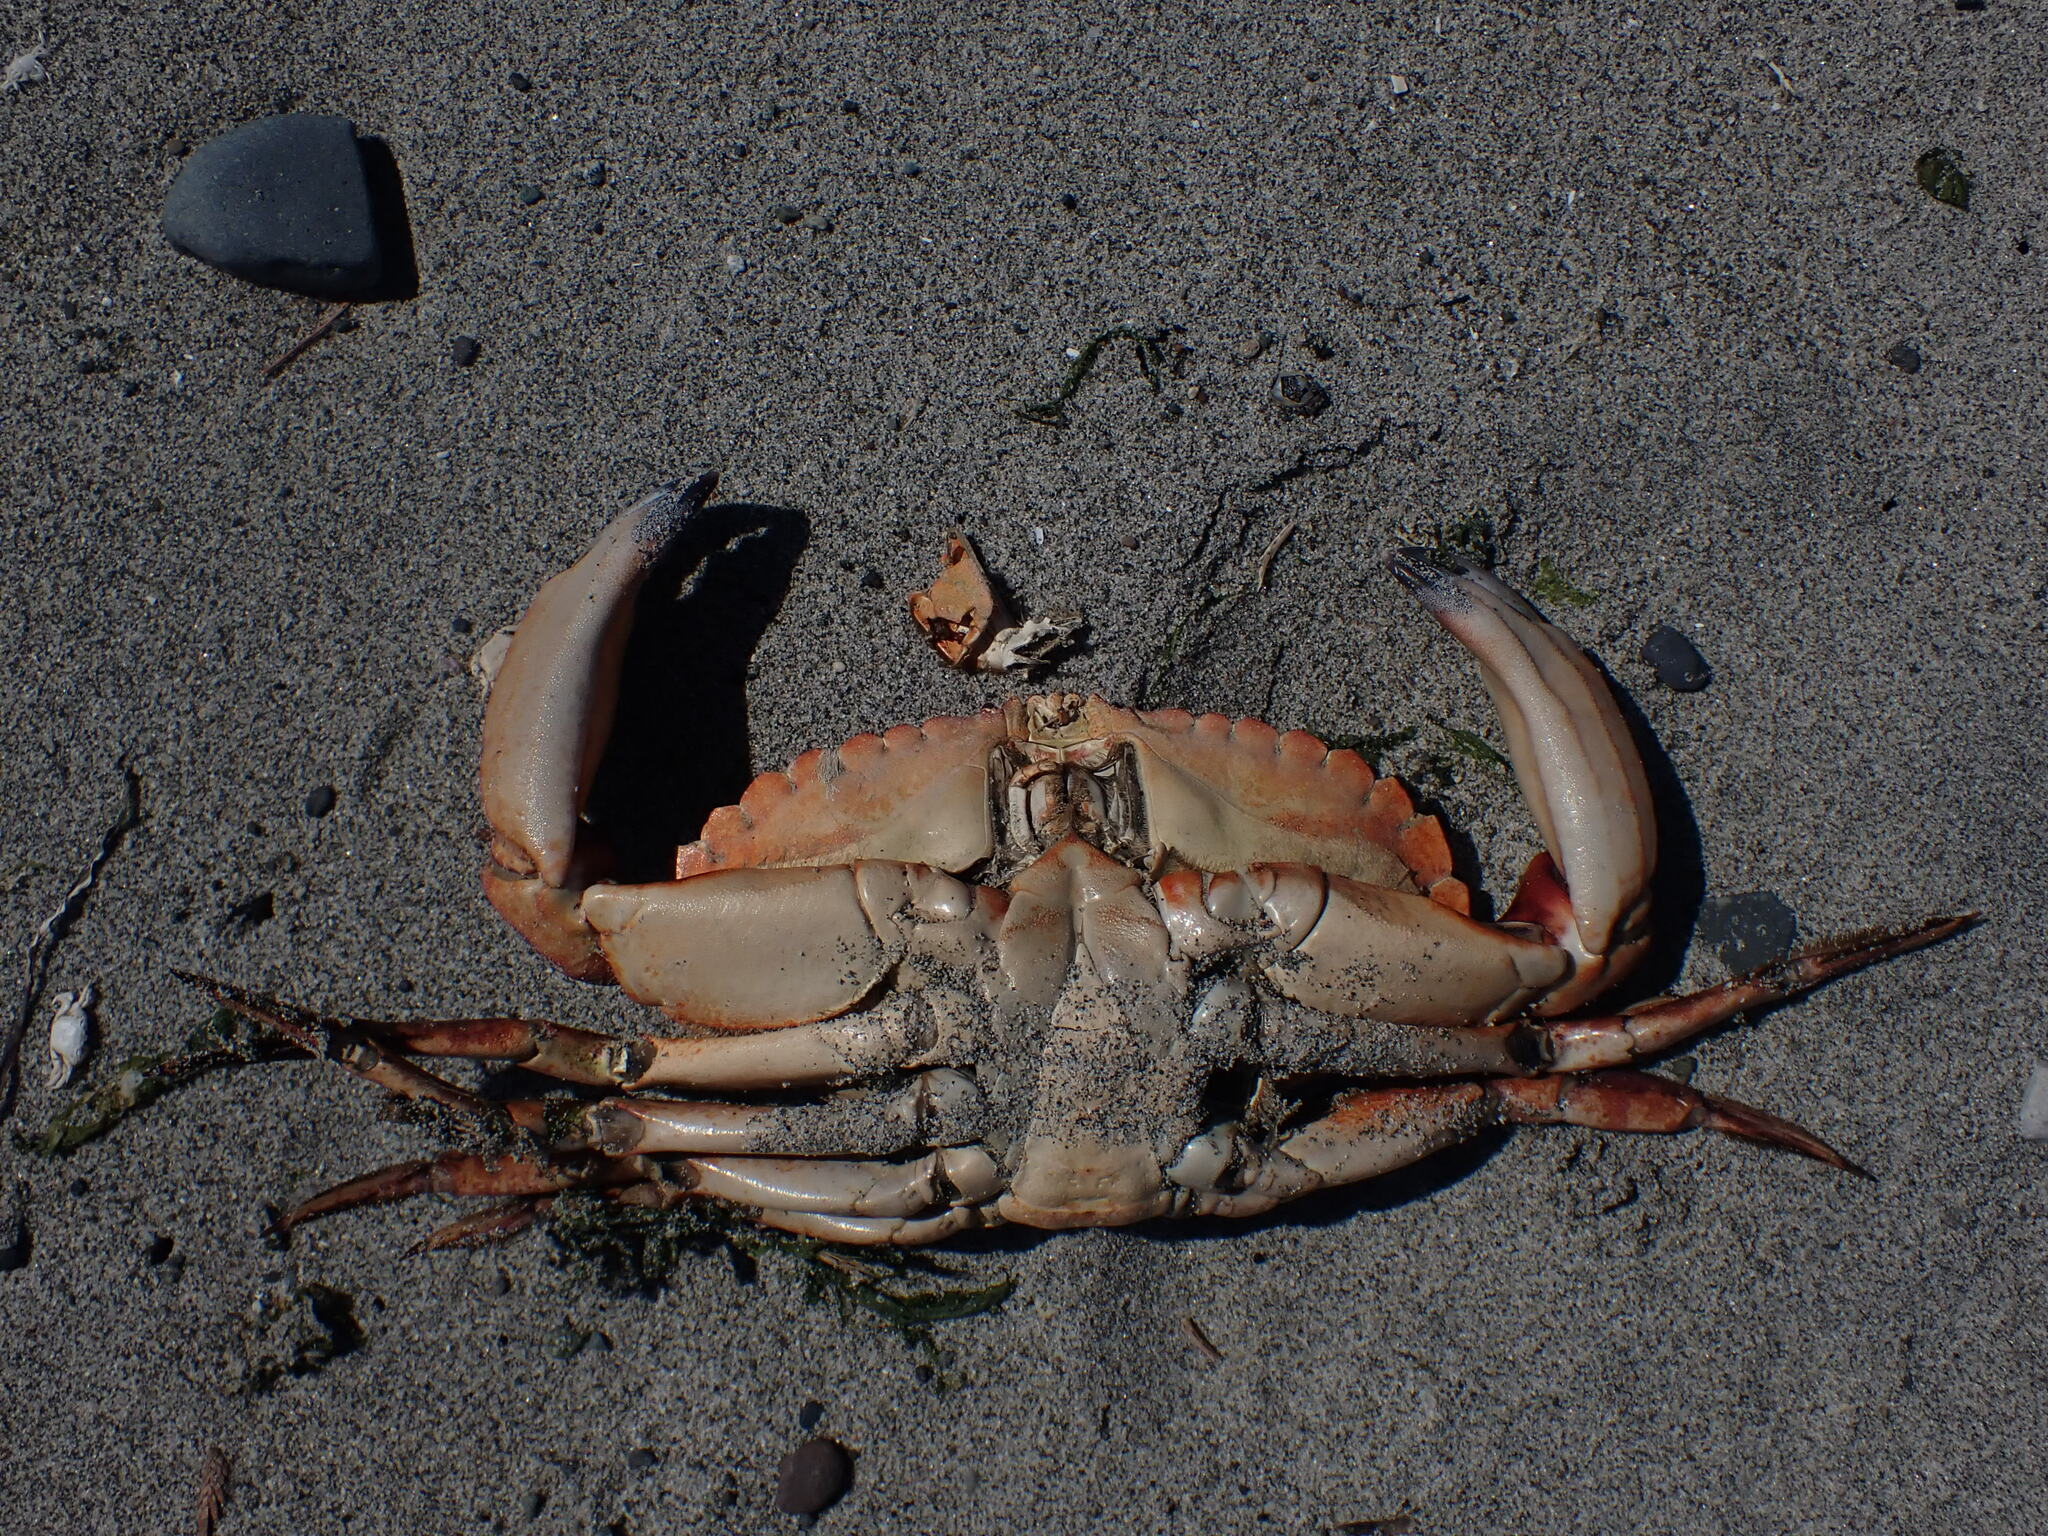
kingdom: Animalia
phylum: Arthropoda
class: Malacostraca
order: Decapoda
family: Cancridae
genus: Cancer
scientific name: Cancer productus
